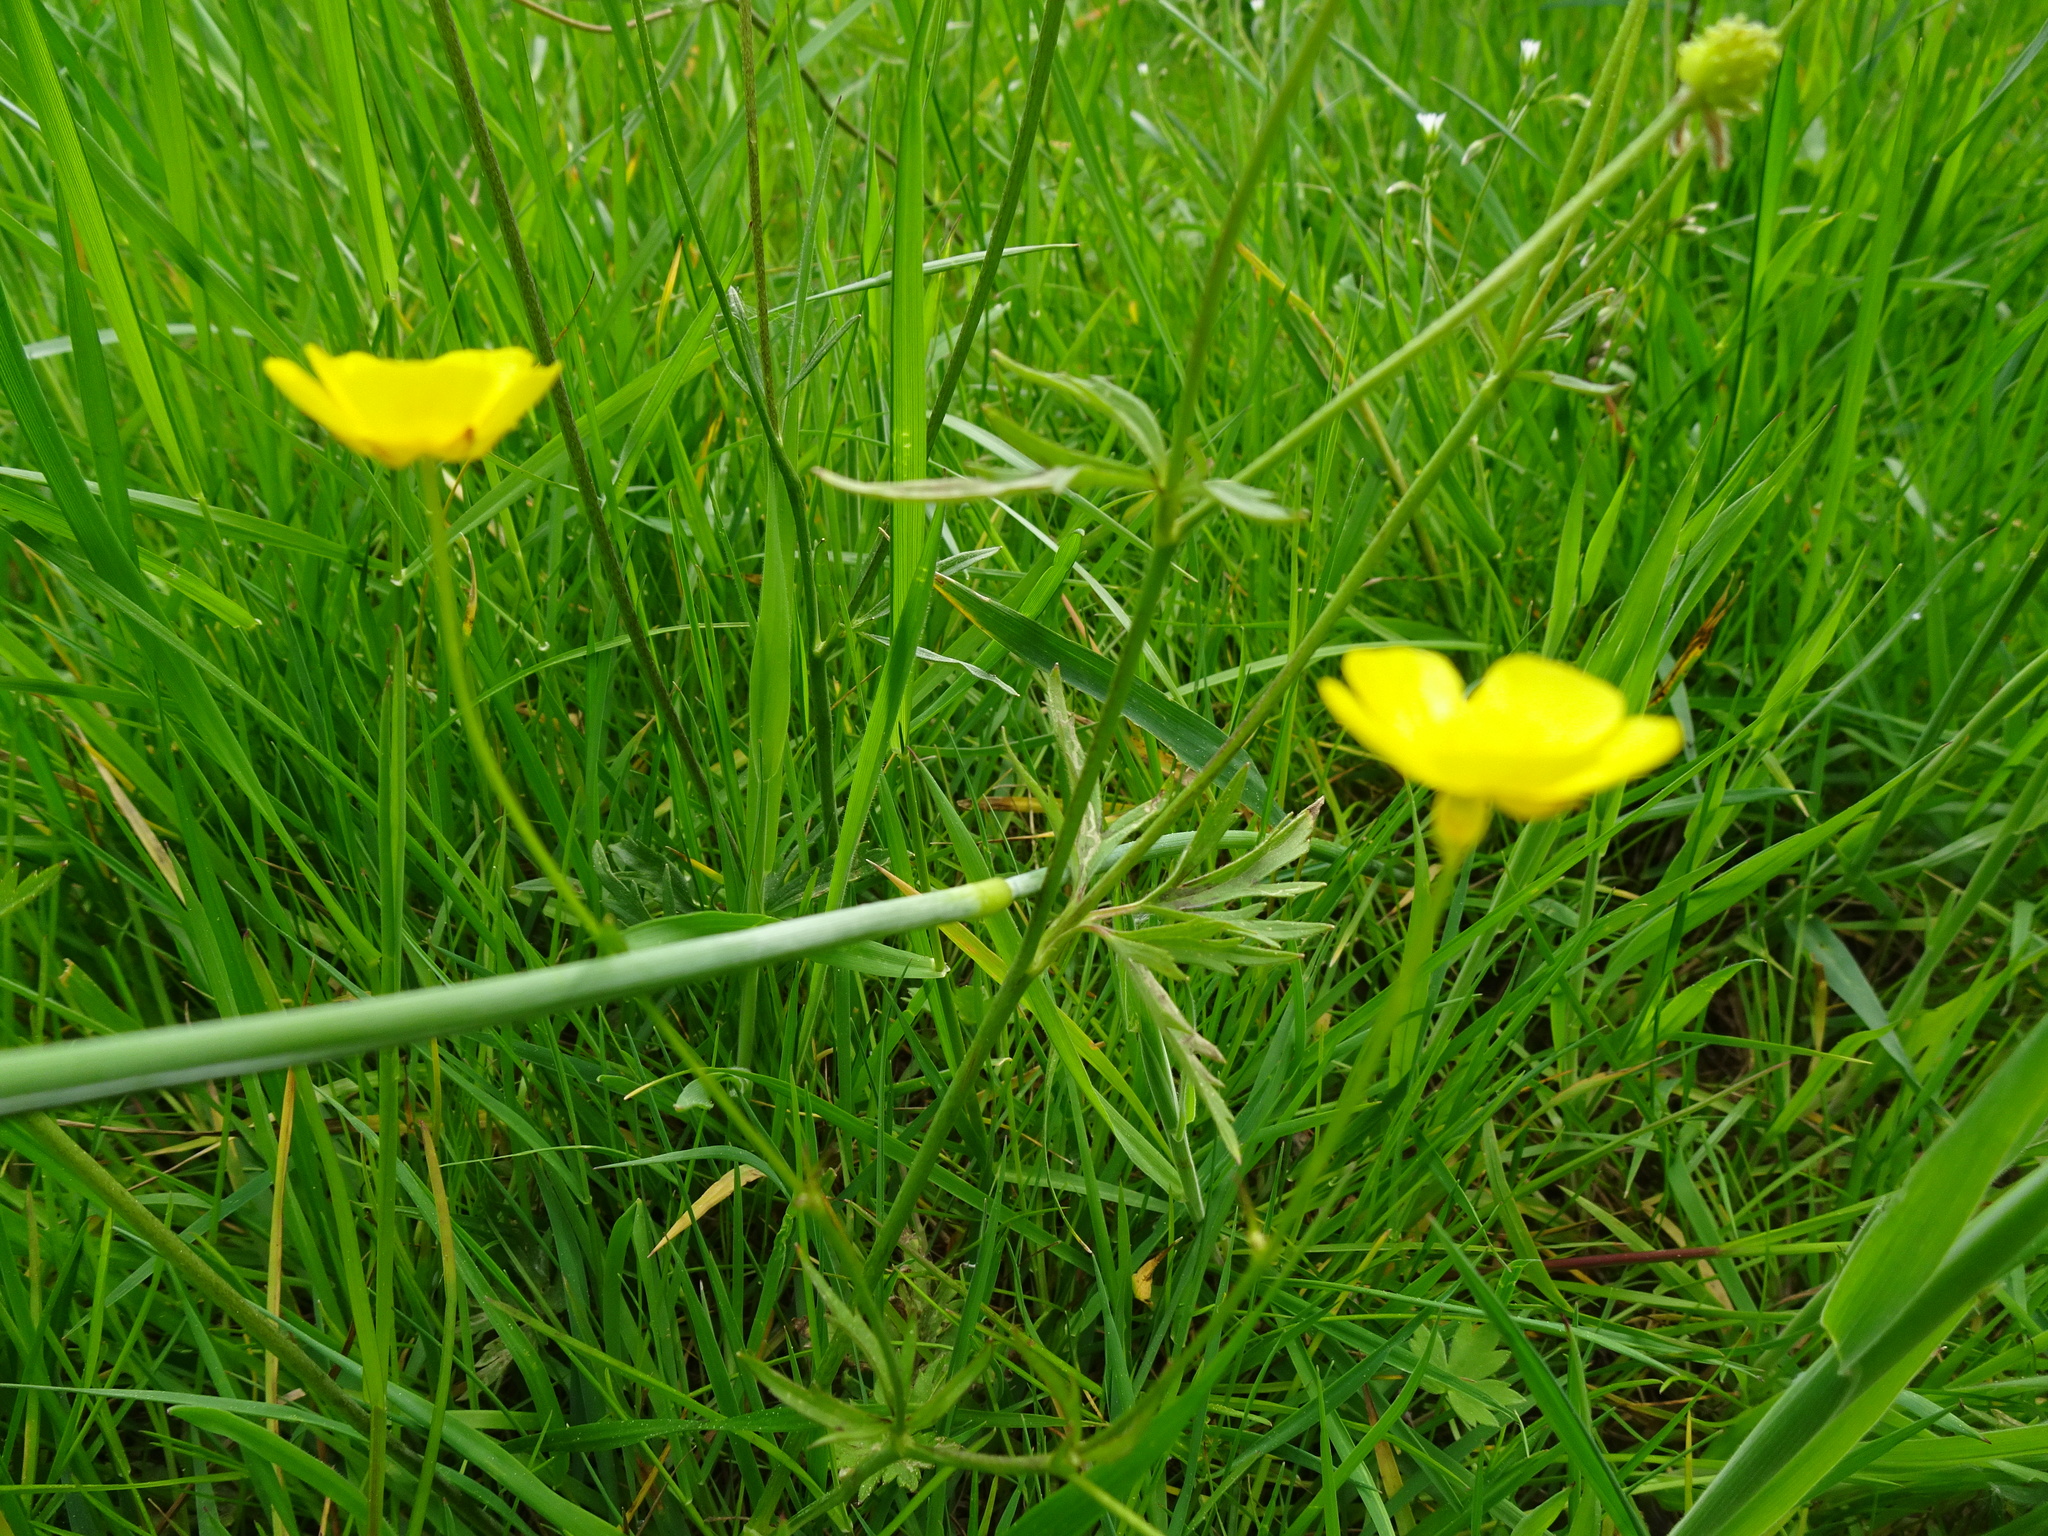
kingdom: Plantae
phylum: Tracheophyta
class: Magnoliopsida
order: Ranunculales
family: Ranunculaceae
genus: Ranunculus
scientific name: Ranunculus acris
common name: Meadow buttercup
